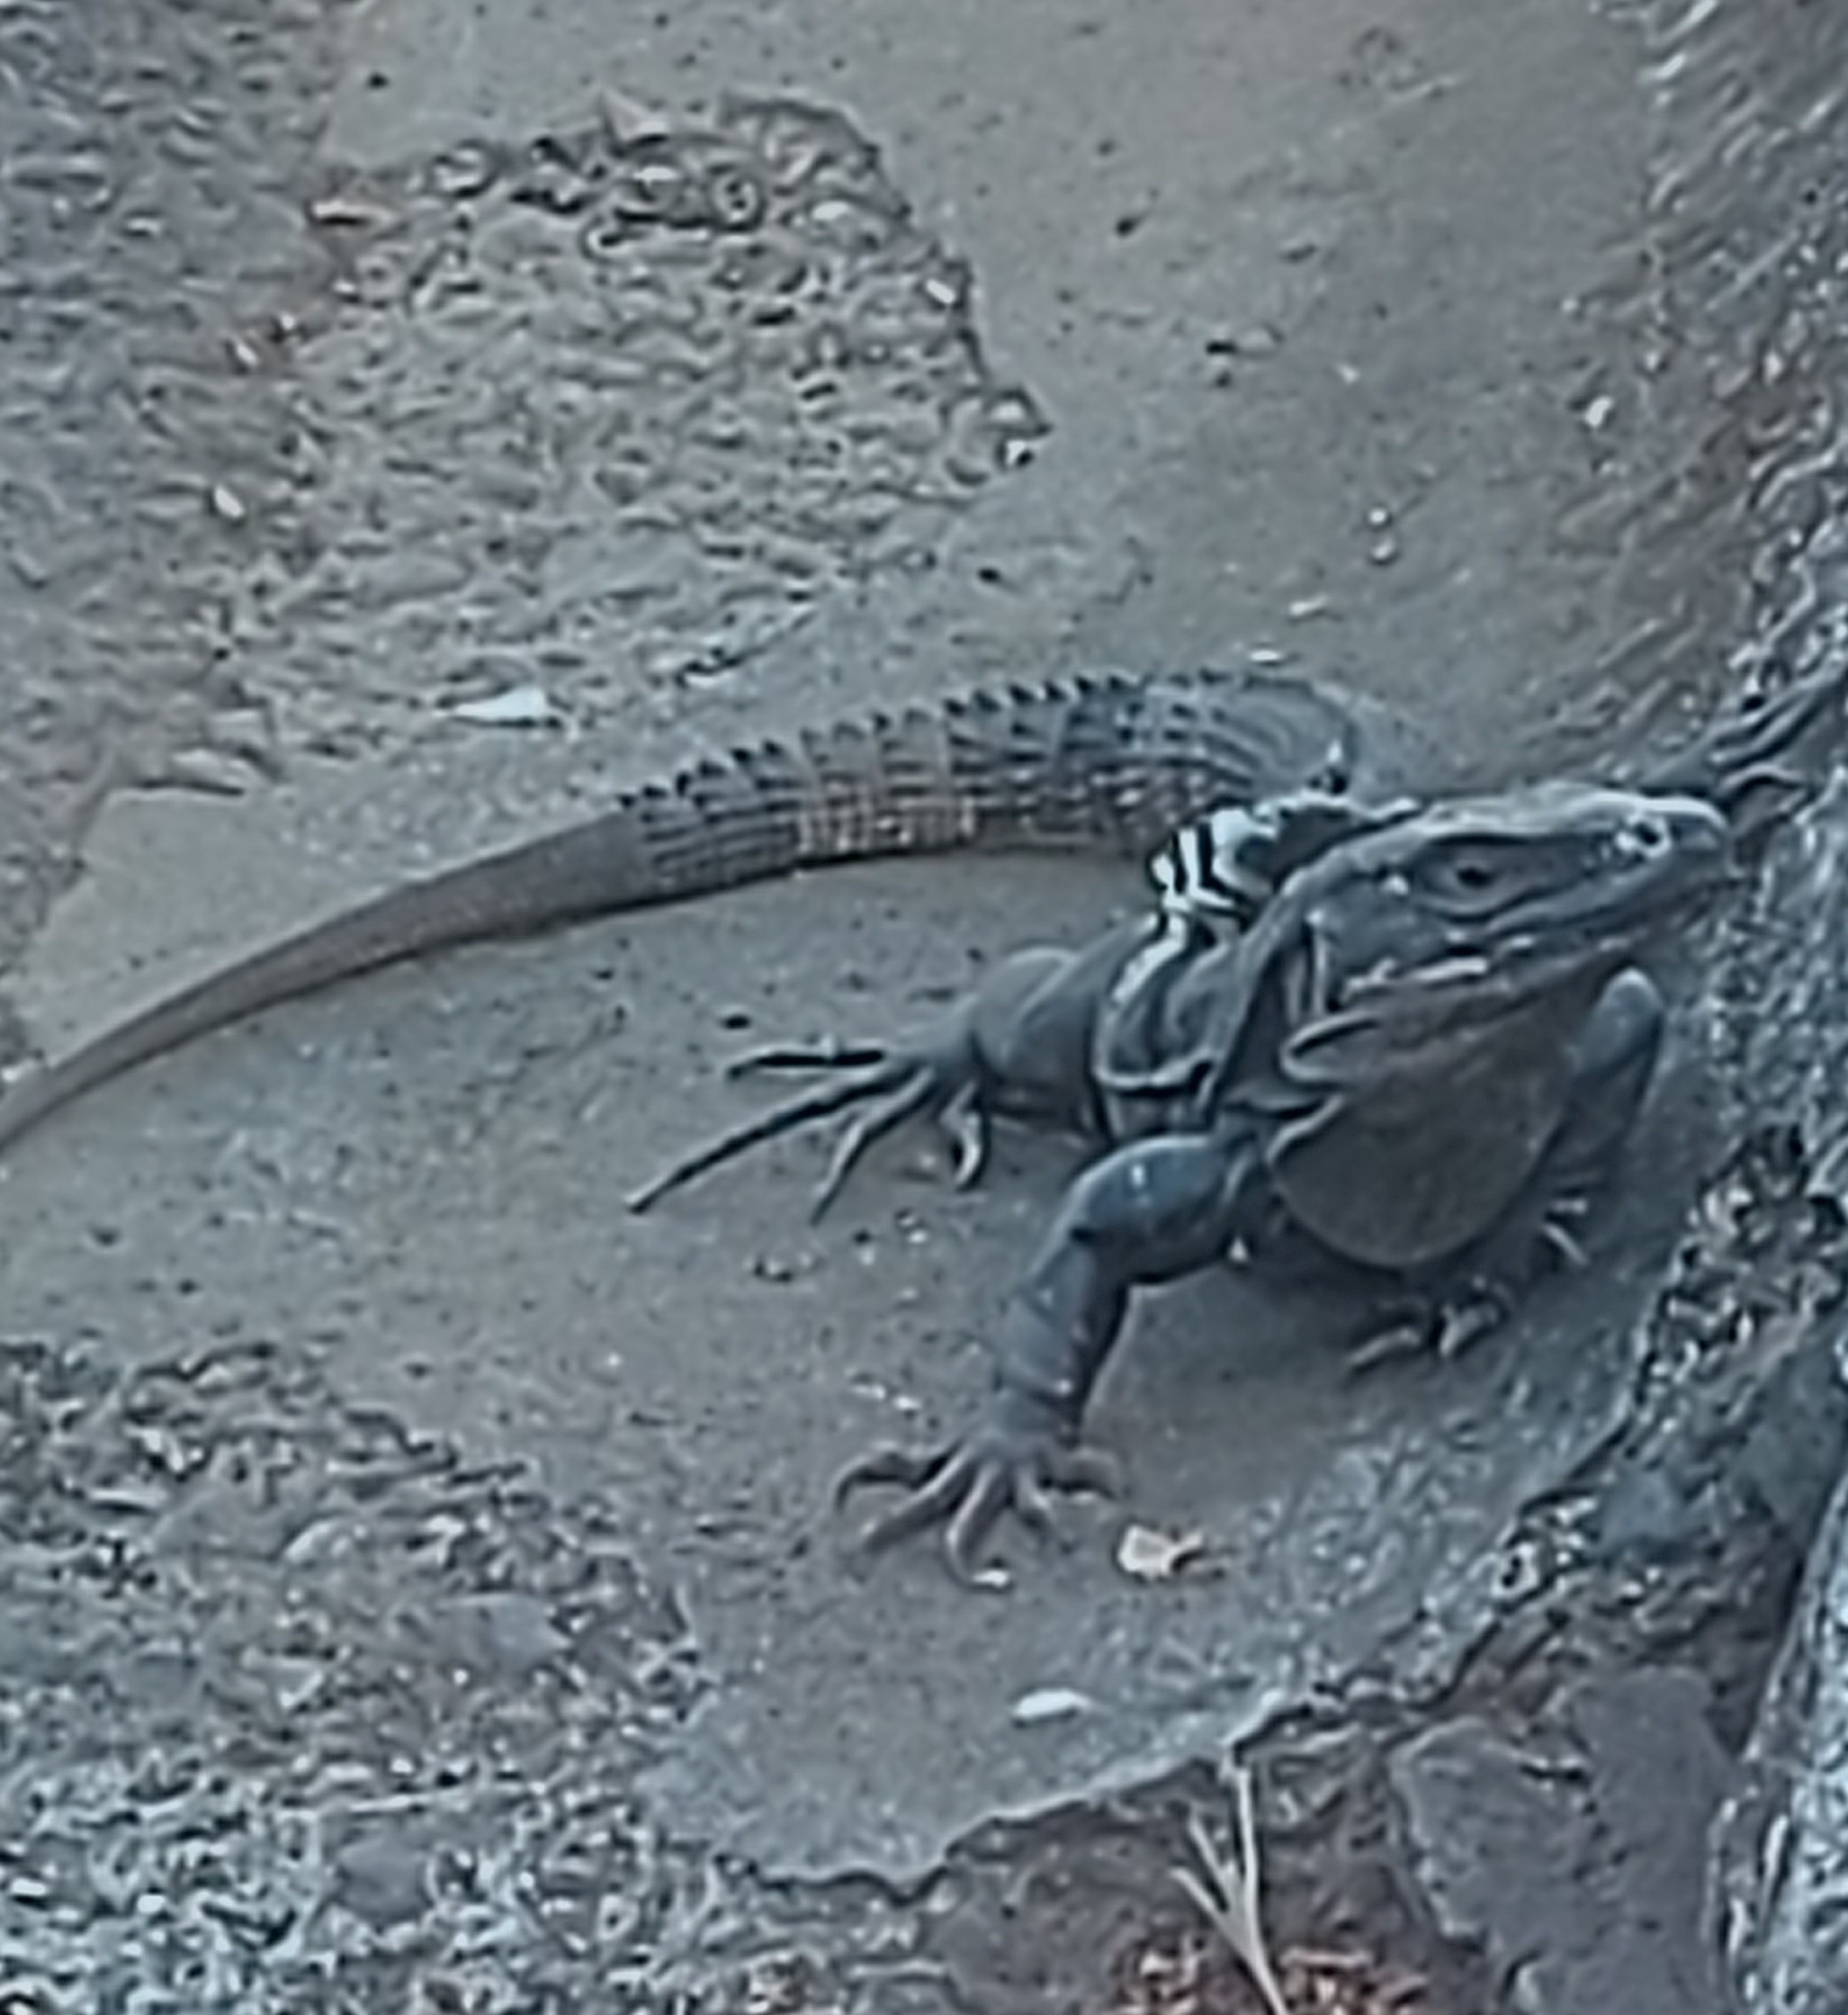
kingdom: Animalia
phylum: Chordata
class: Squamata
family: Iguanidae
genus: Ctenosaura
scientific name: Ctenosaura similis
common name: Black spiny-tailed iguana
